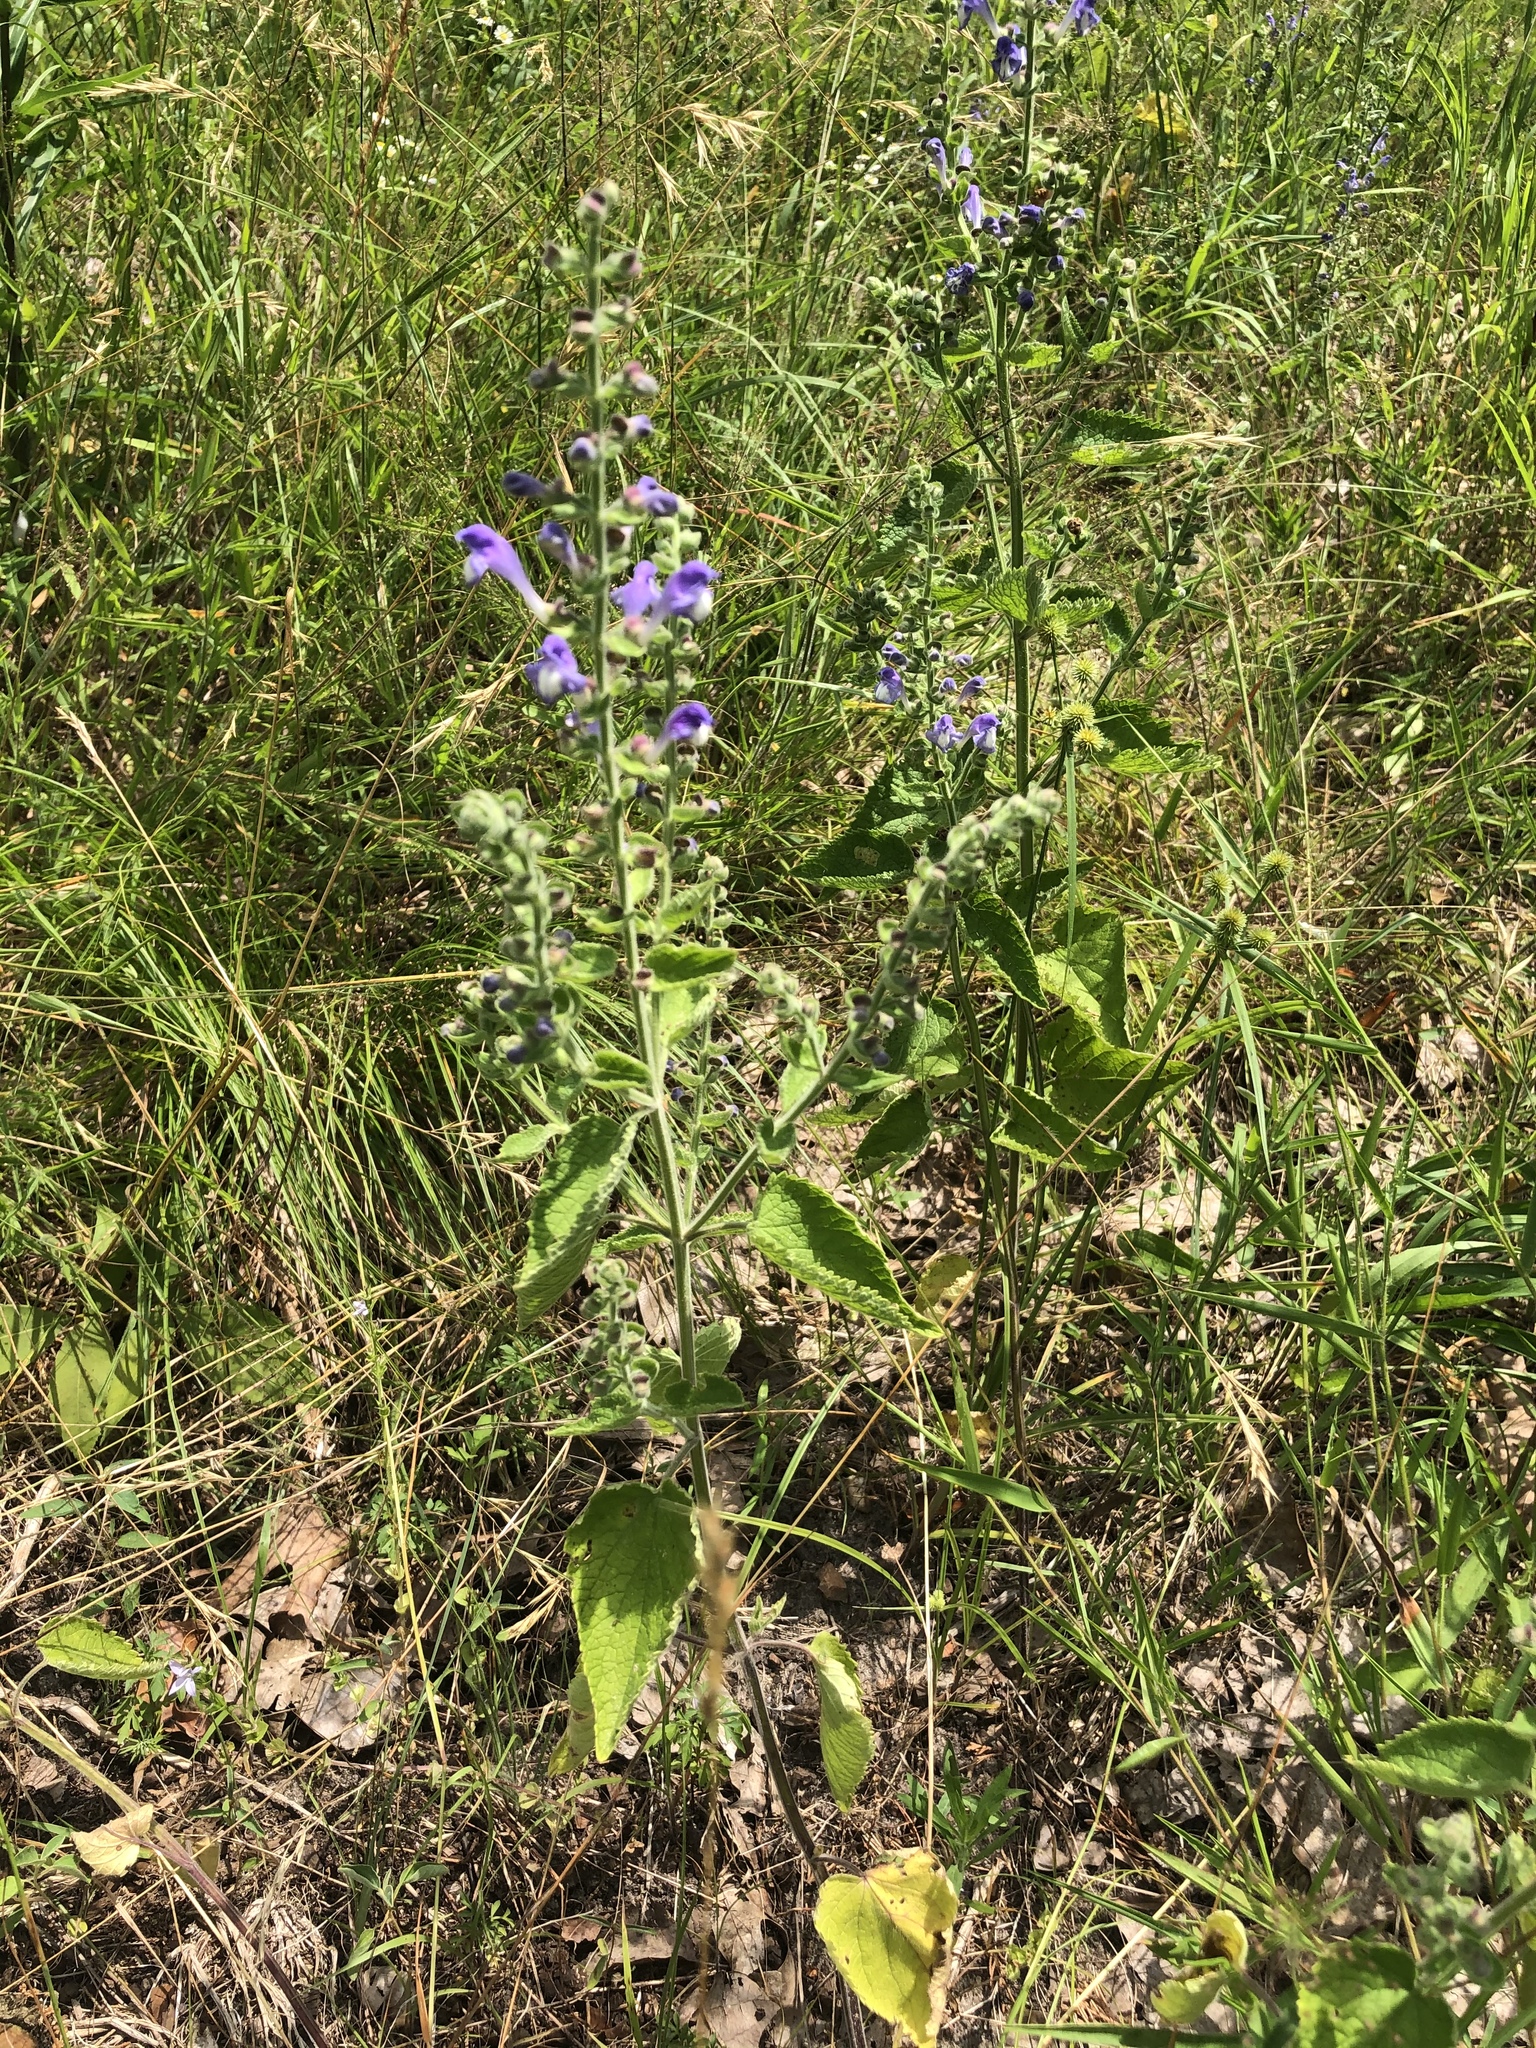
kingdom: Plantae
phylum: Tracheophyta
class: Magnoliopsida
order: Lamiales
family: Lamiaceae
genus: Scutellaria
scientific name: Scutellaria ovata
